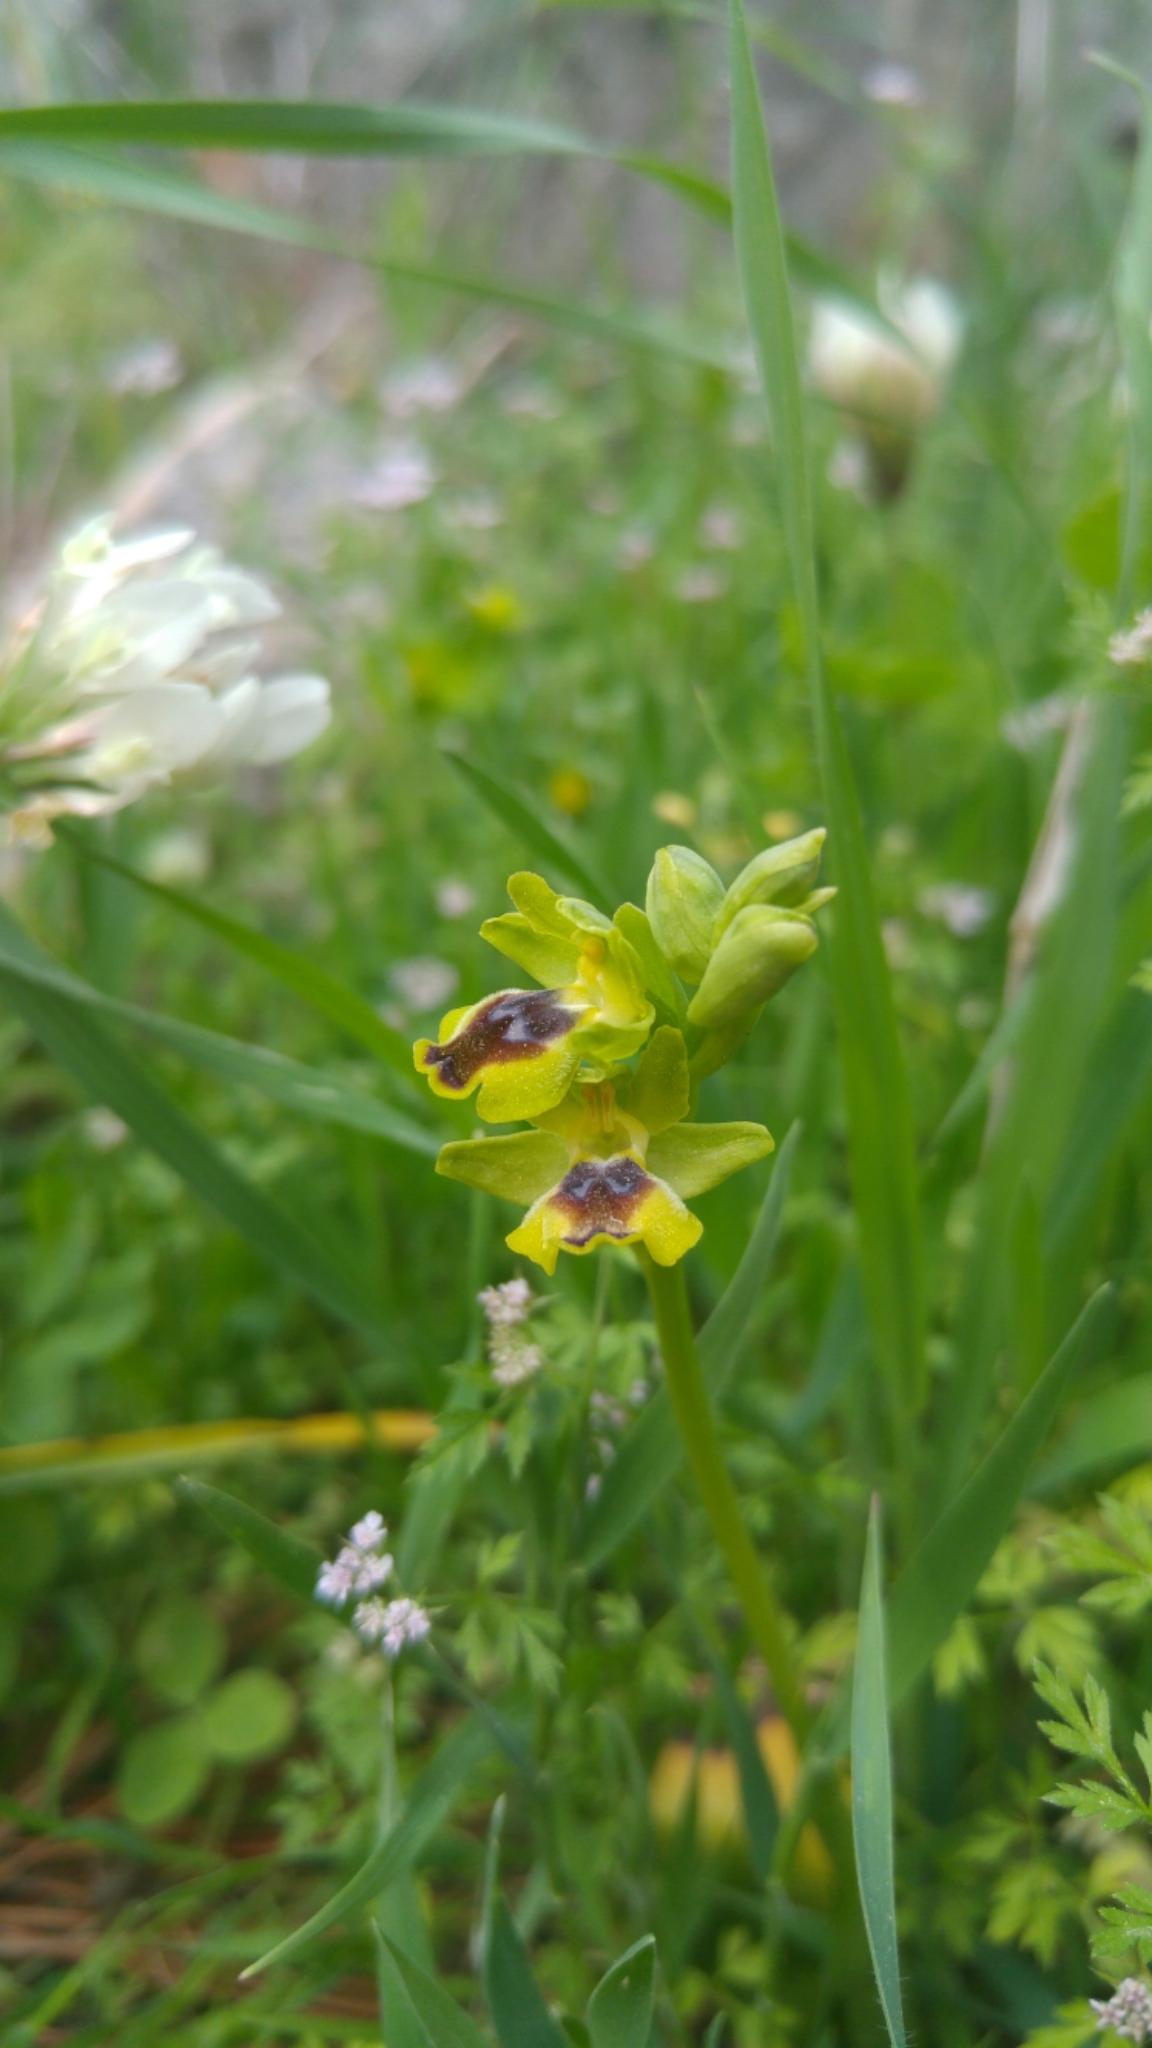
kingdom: Plantae
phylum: Tracheophyta
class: Liliopsida
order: Asparagales
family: Orchidaceae
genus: Ophrys
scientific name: Ophrys lutea
